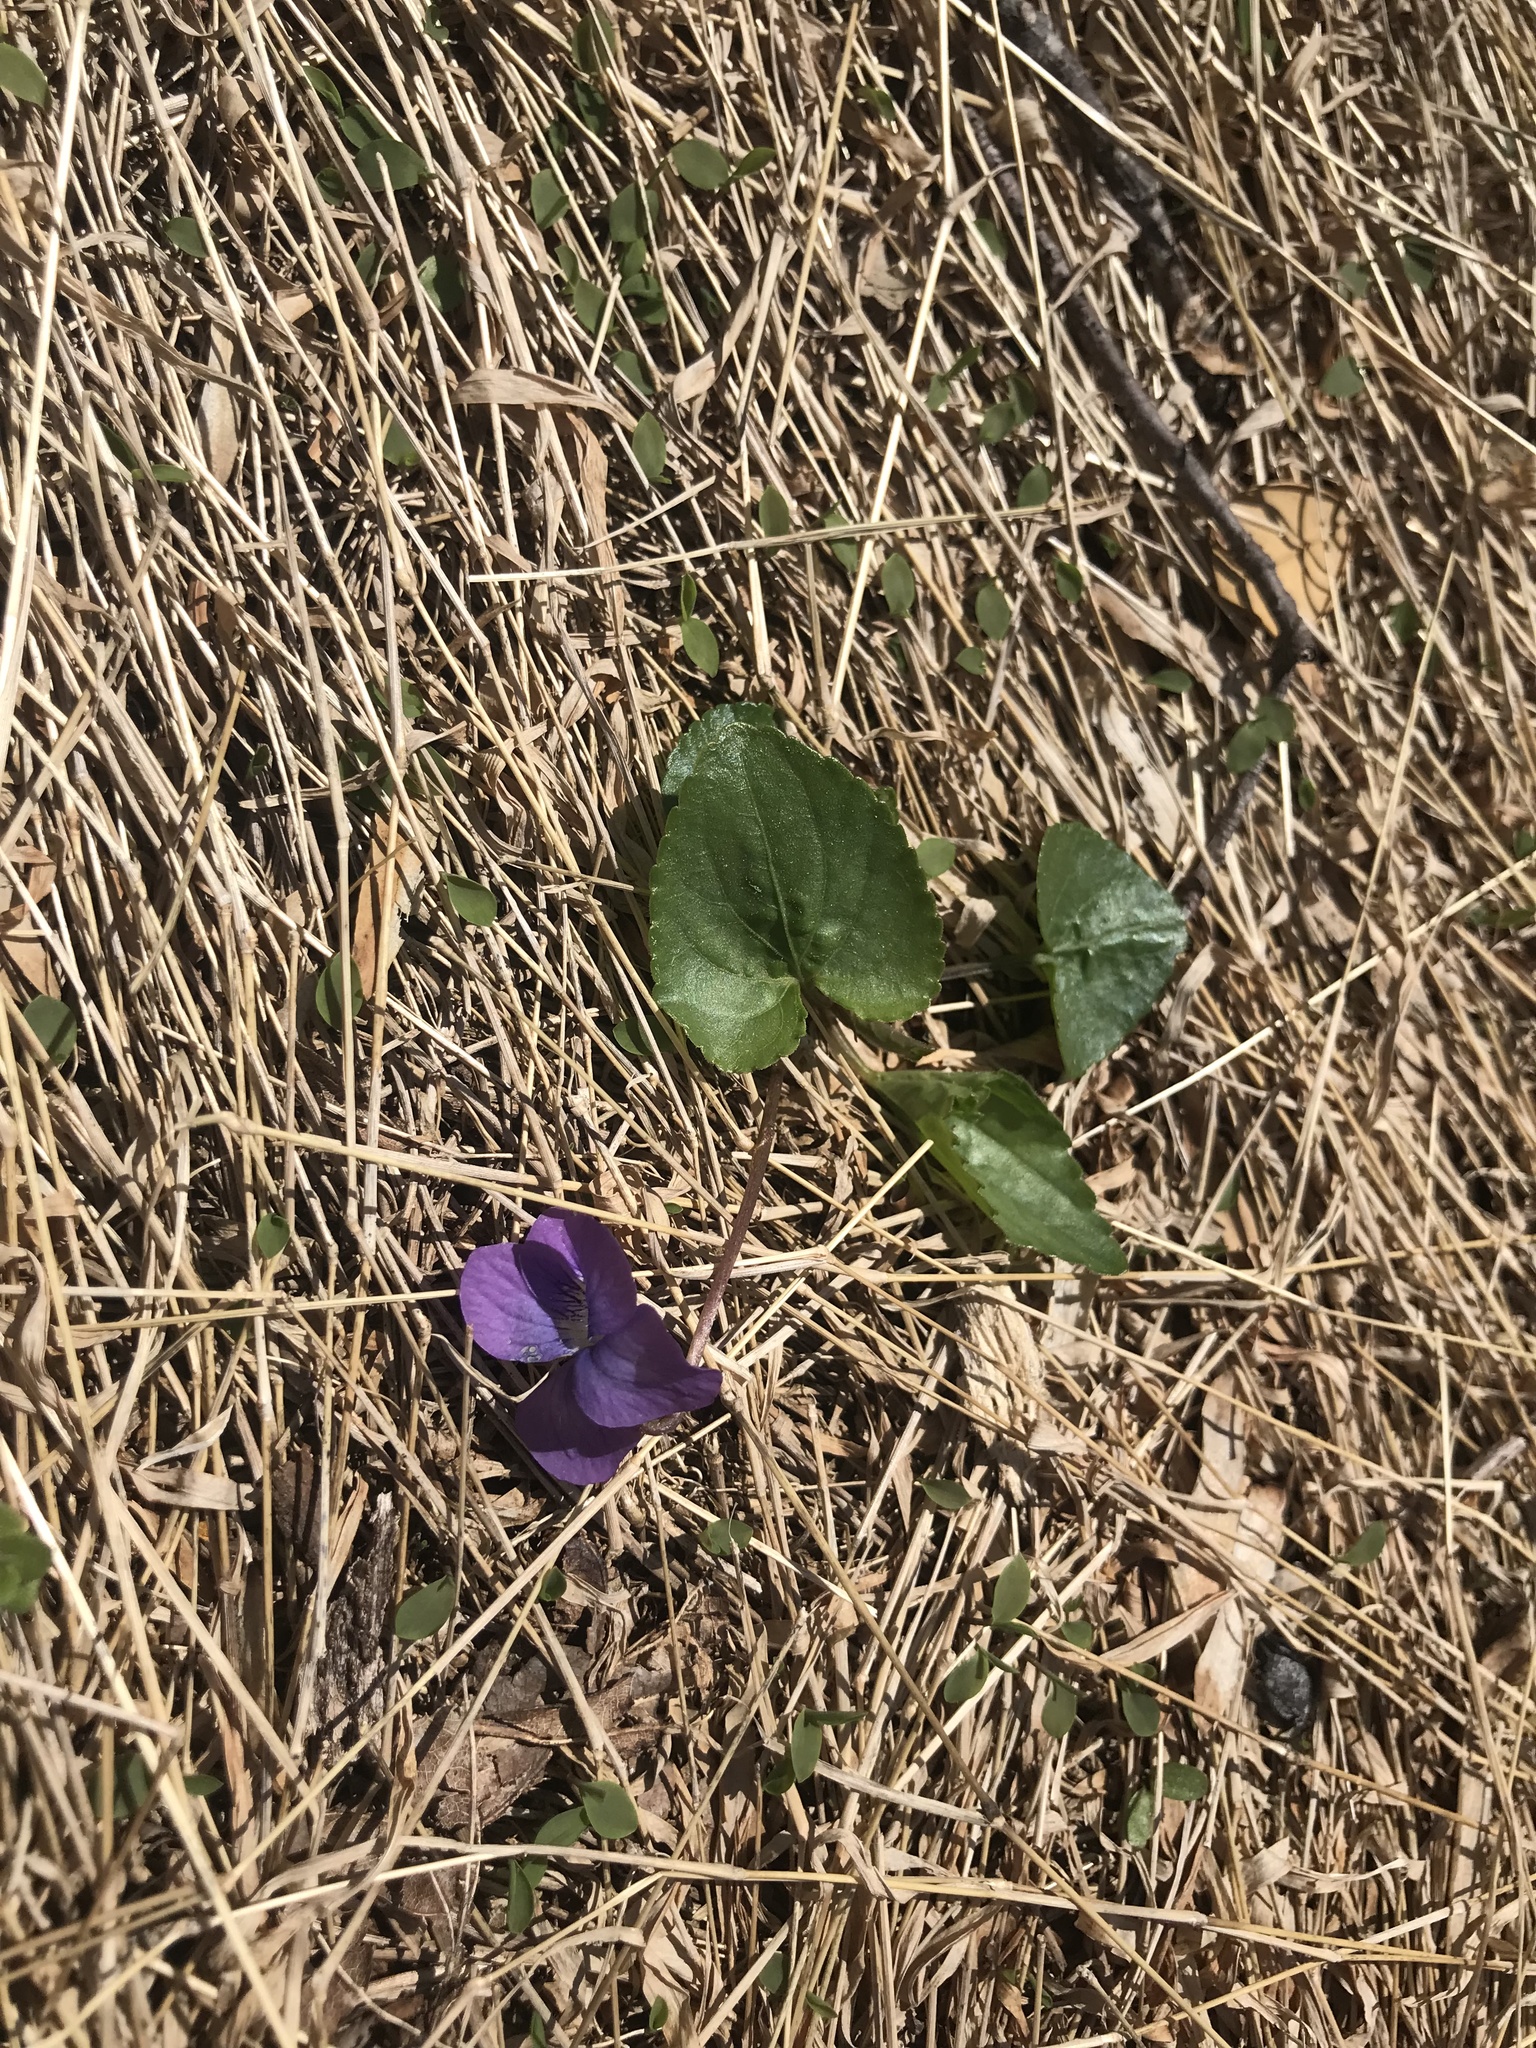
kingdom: Plantae
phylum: Tracheophyta
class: Magnoliopsida
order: Malpighiales
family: Violaceae
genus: Viola
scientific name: Viola sororia
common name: Dooryard violet
